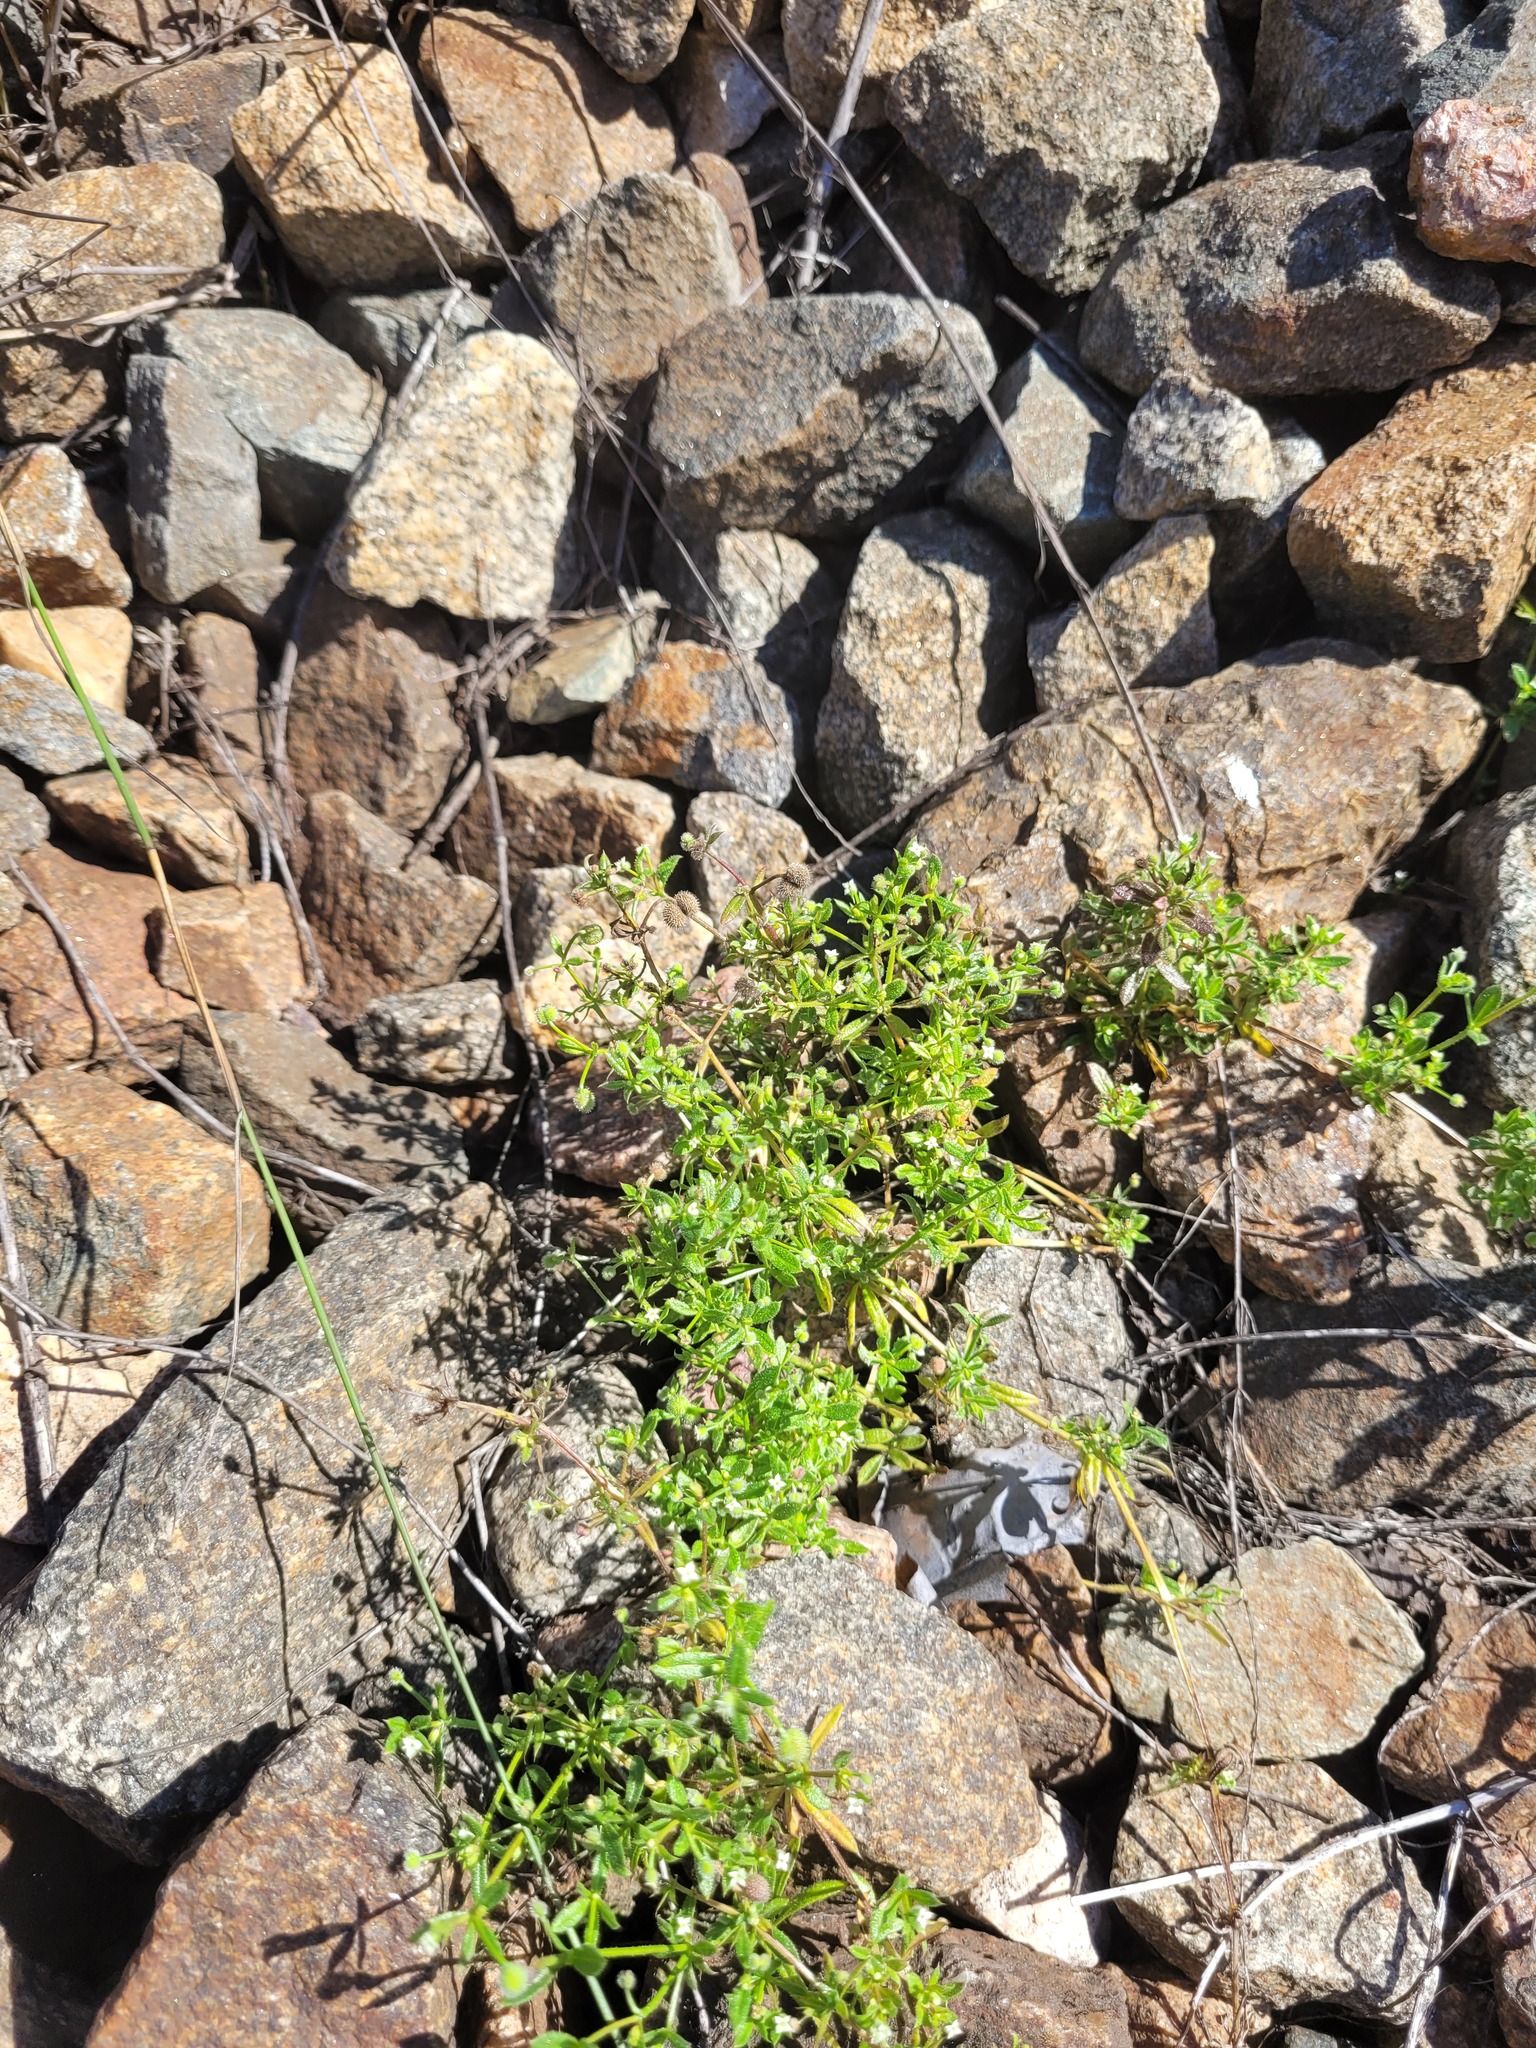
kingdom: Plantae
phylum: Tracheophyta
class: Magnoliopsida
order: Gentianales
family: Rubiaceae
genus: Galium
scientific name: Galium aparine
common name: Cleavers
